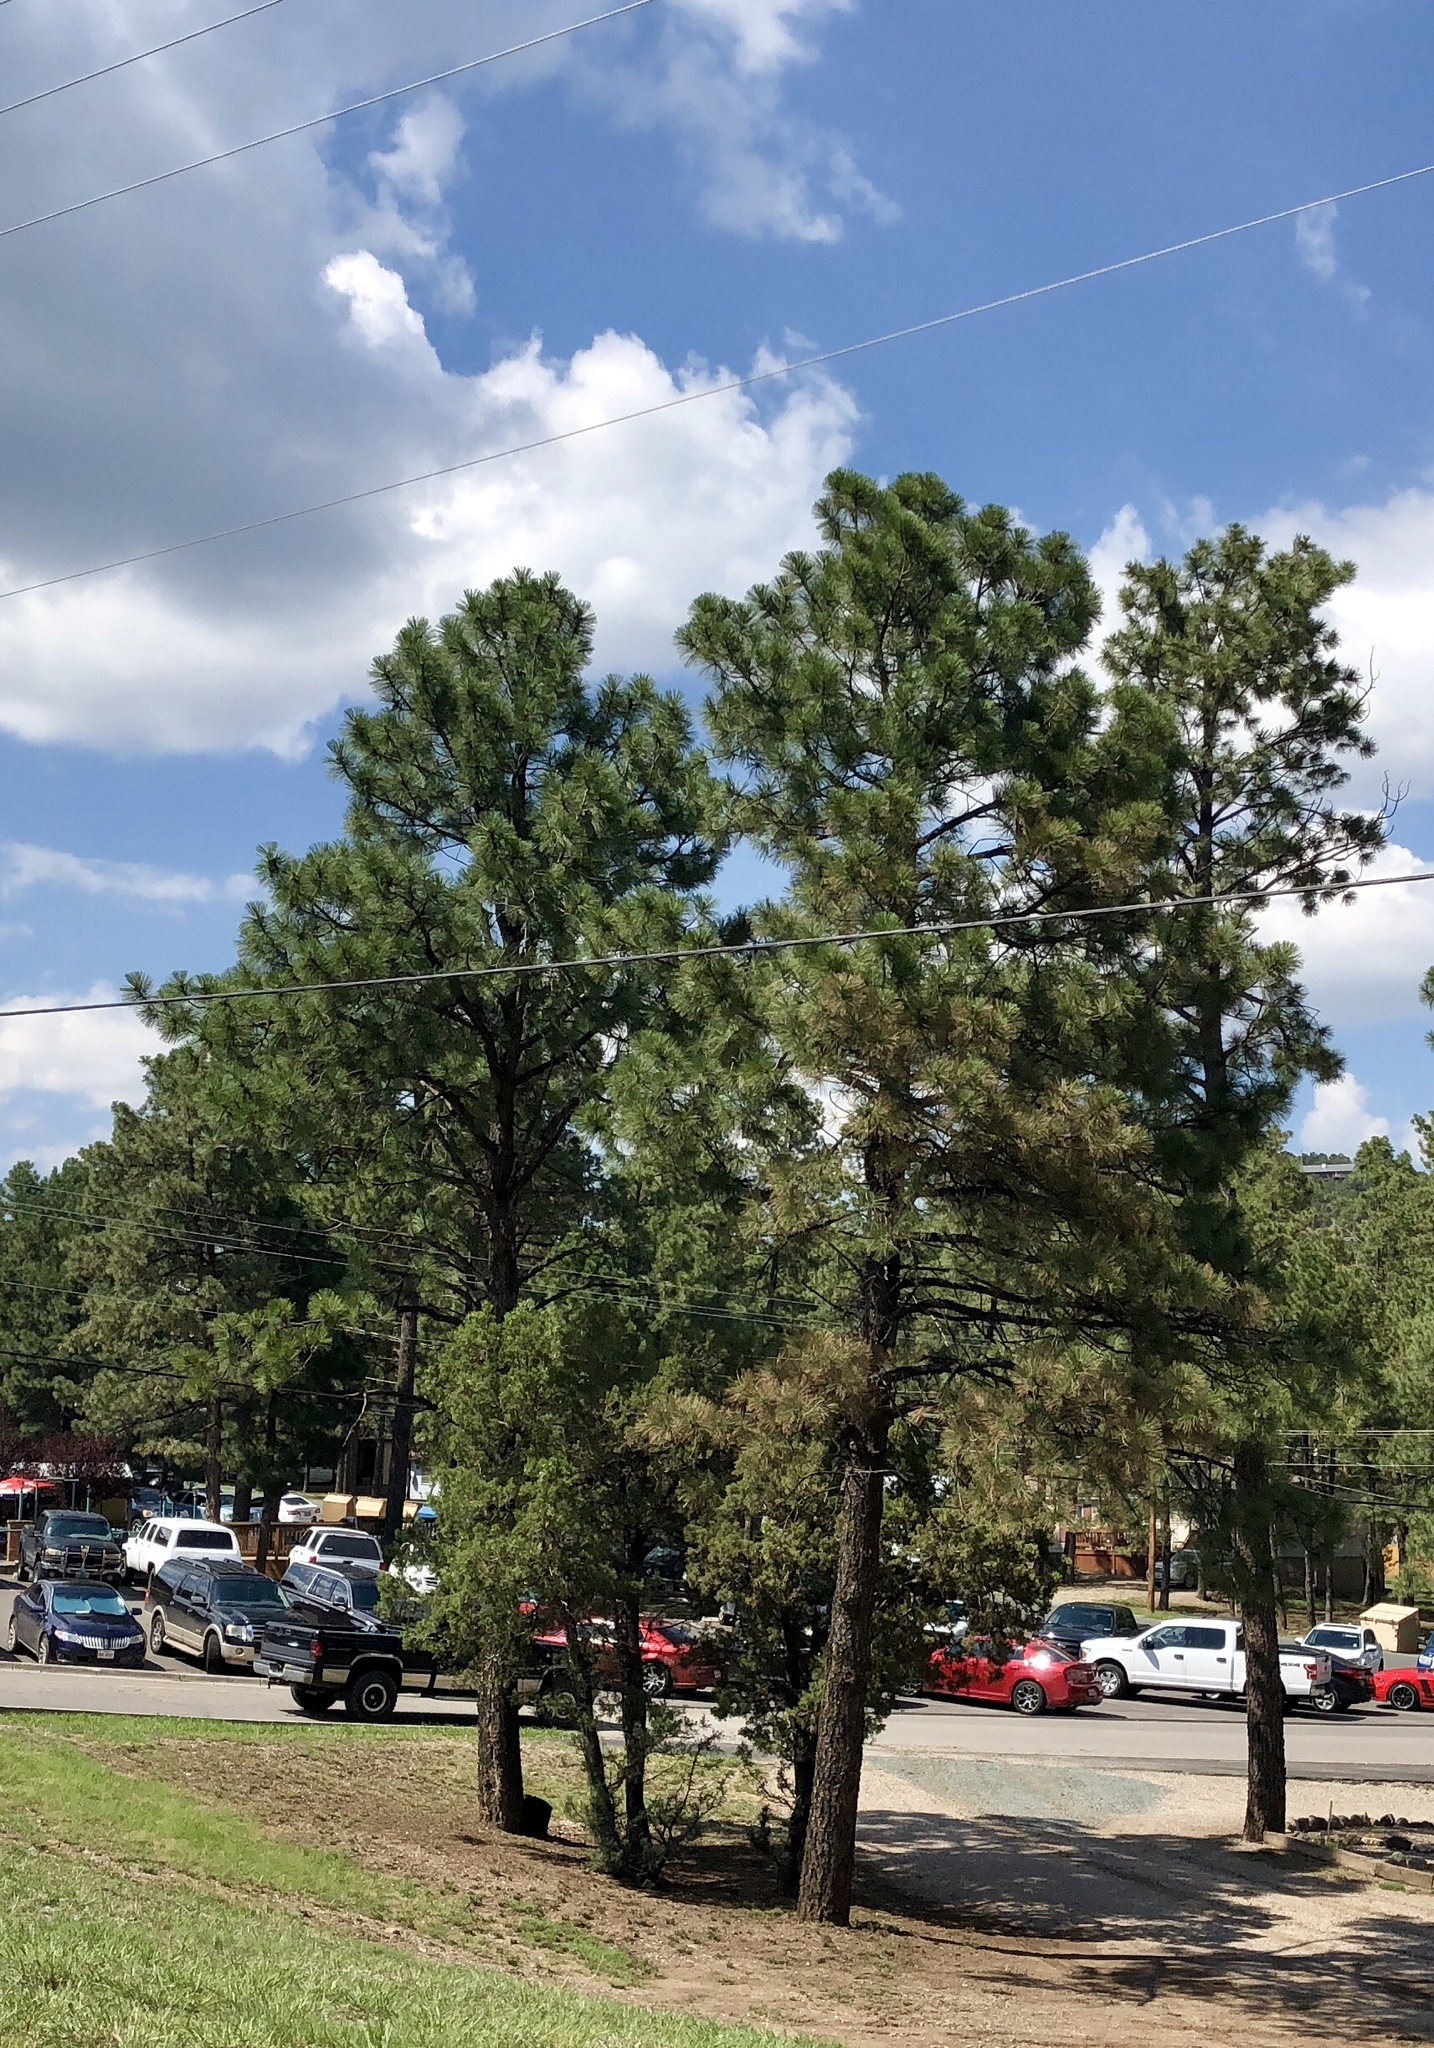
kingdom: Plantae
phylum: Tracheophyta
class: Pinopsida
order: Pinales
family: Pinaceae
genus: Pinus
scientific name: Pinus ponderosa
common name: Western yellow-pine
